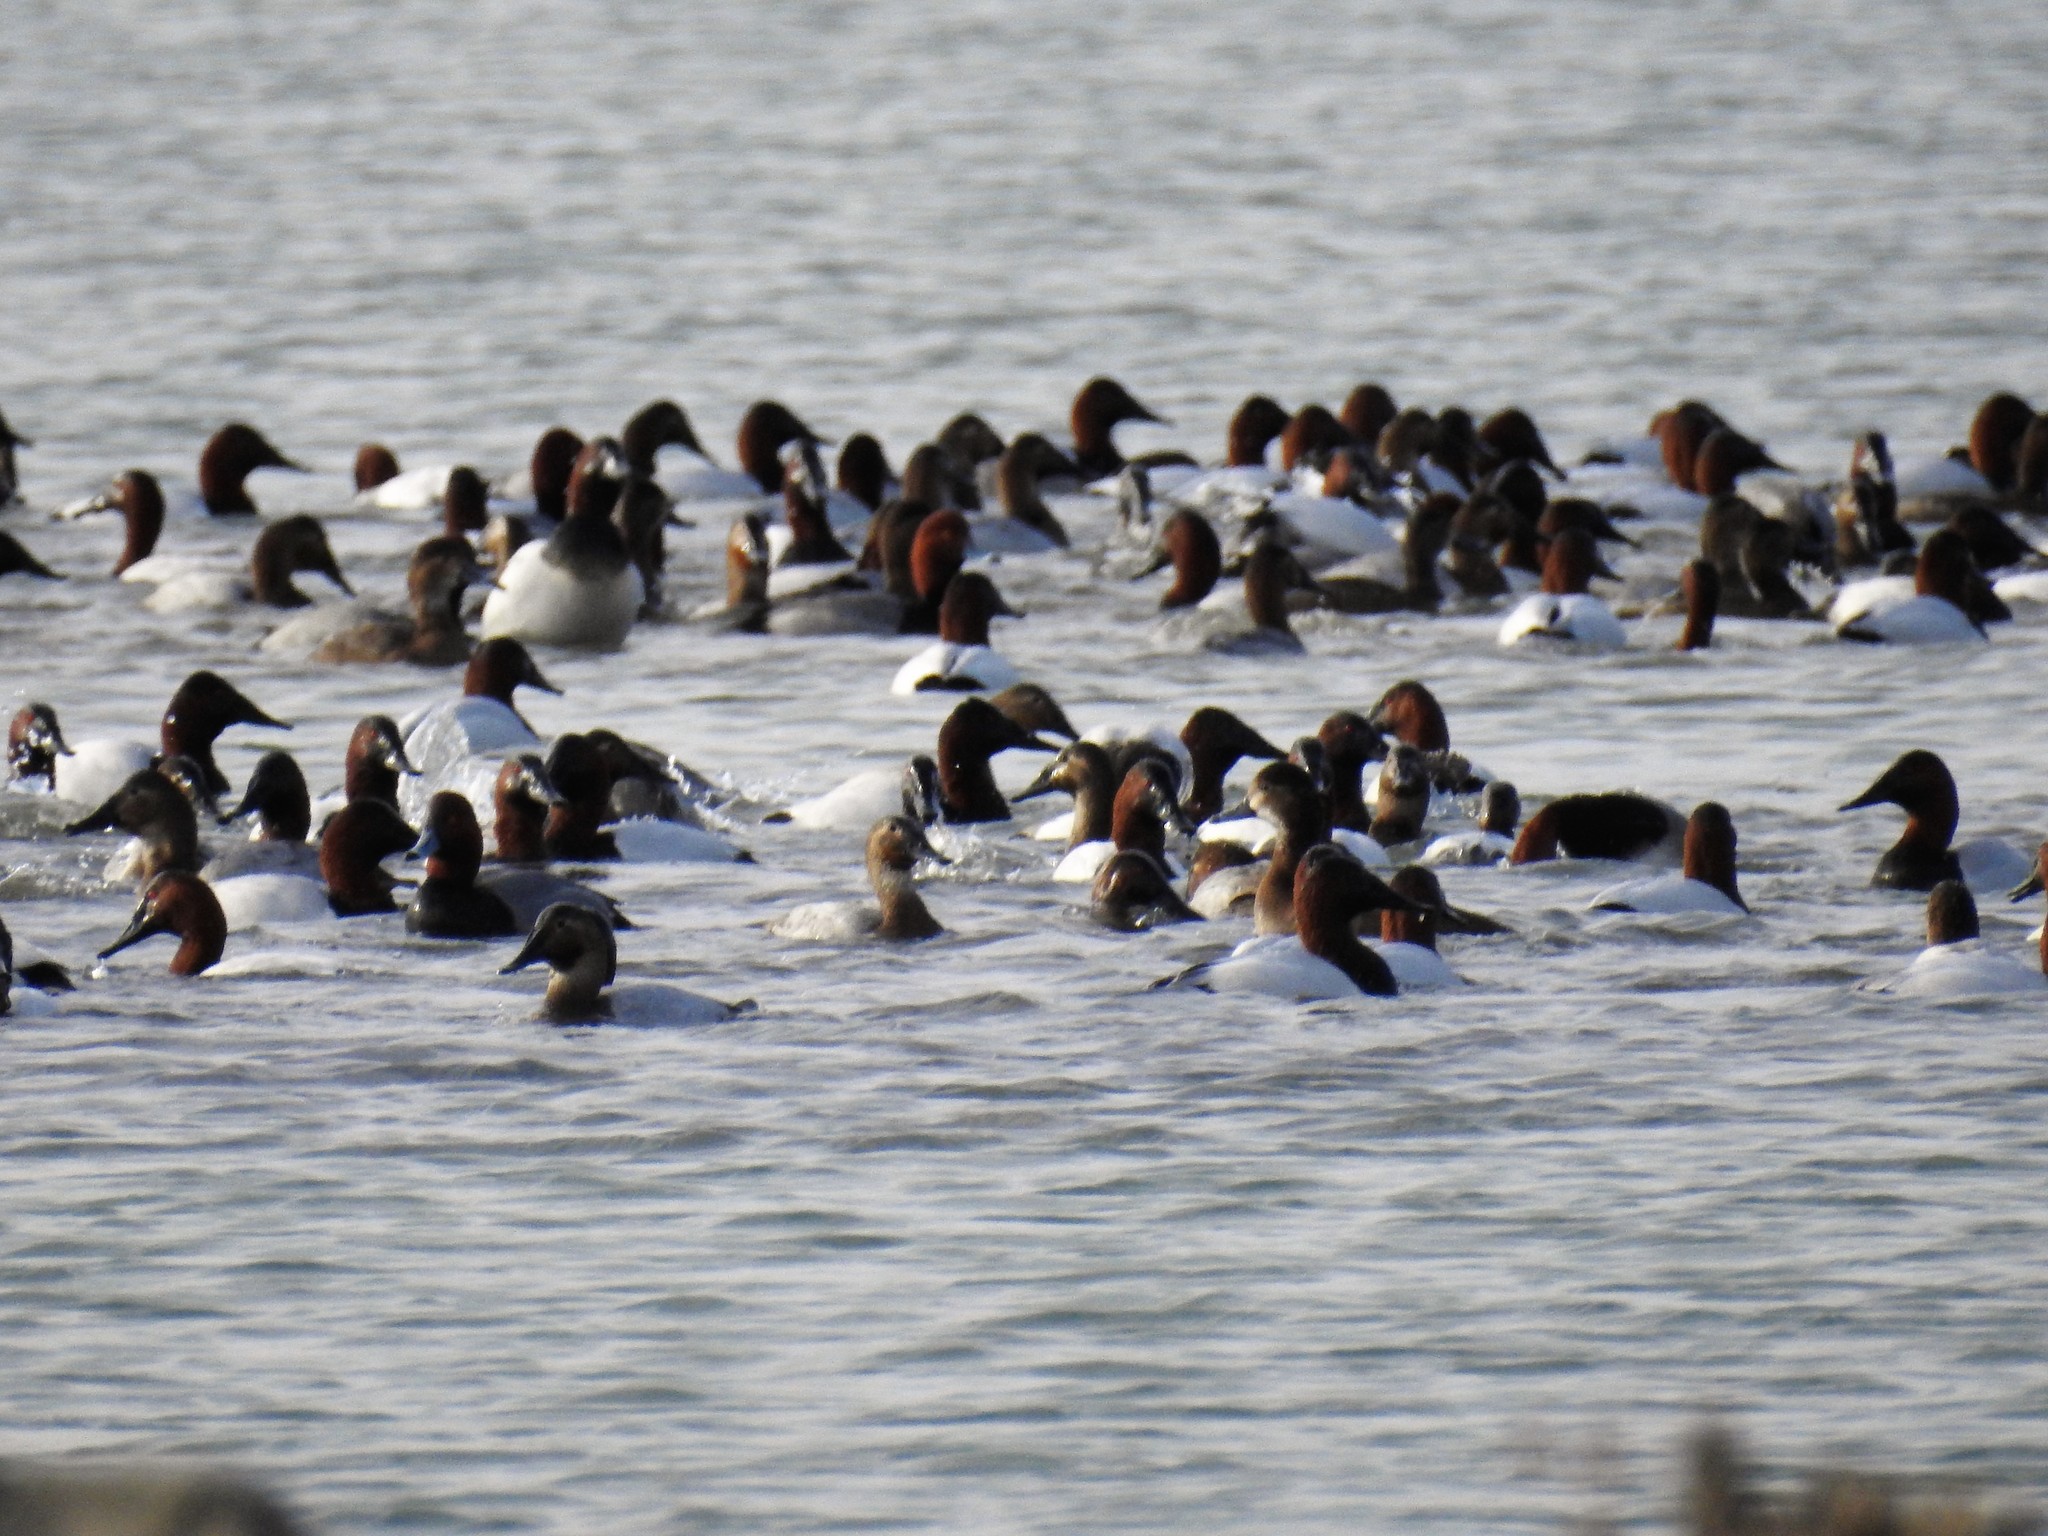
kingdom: Animalia
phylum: Chordata
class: Aves
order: Anseriformes
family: Anatidae
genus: Aythya
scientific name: Aythya valisineria
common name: Canvasback
